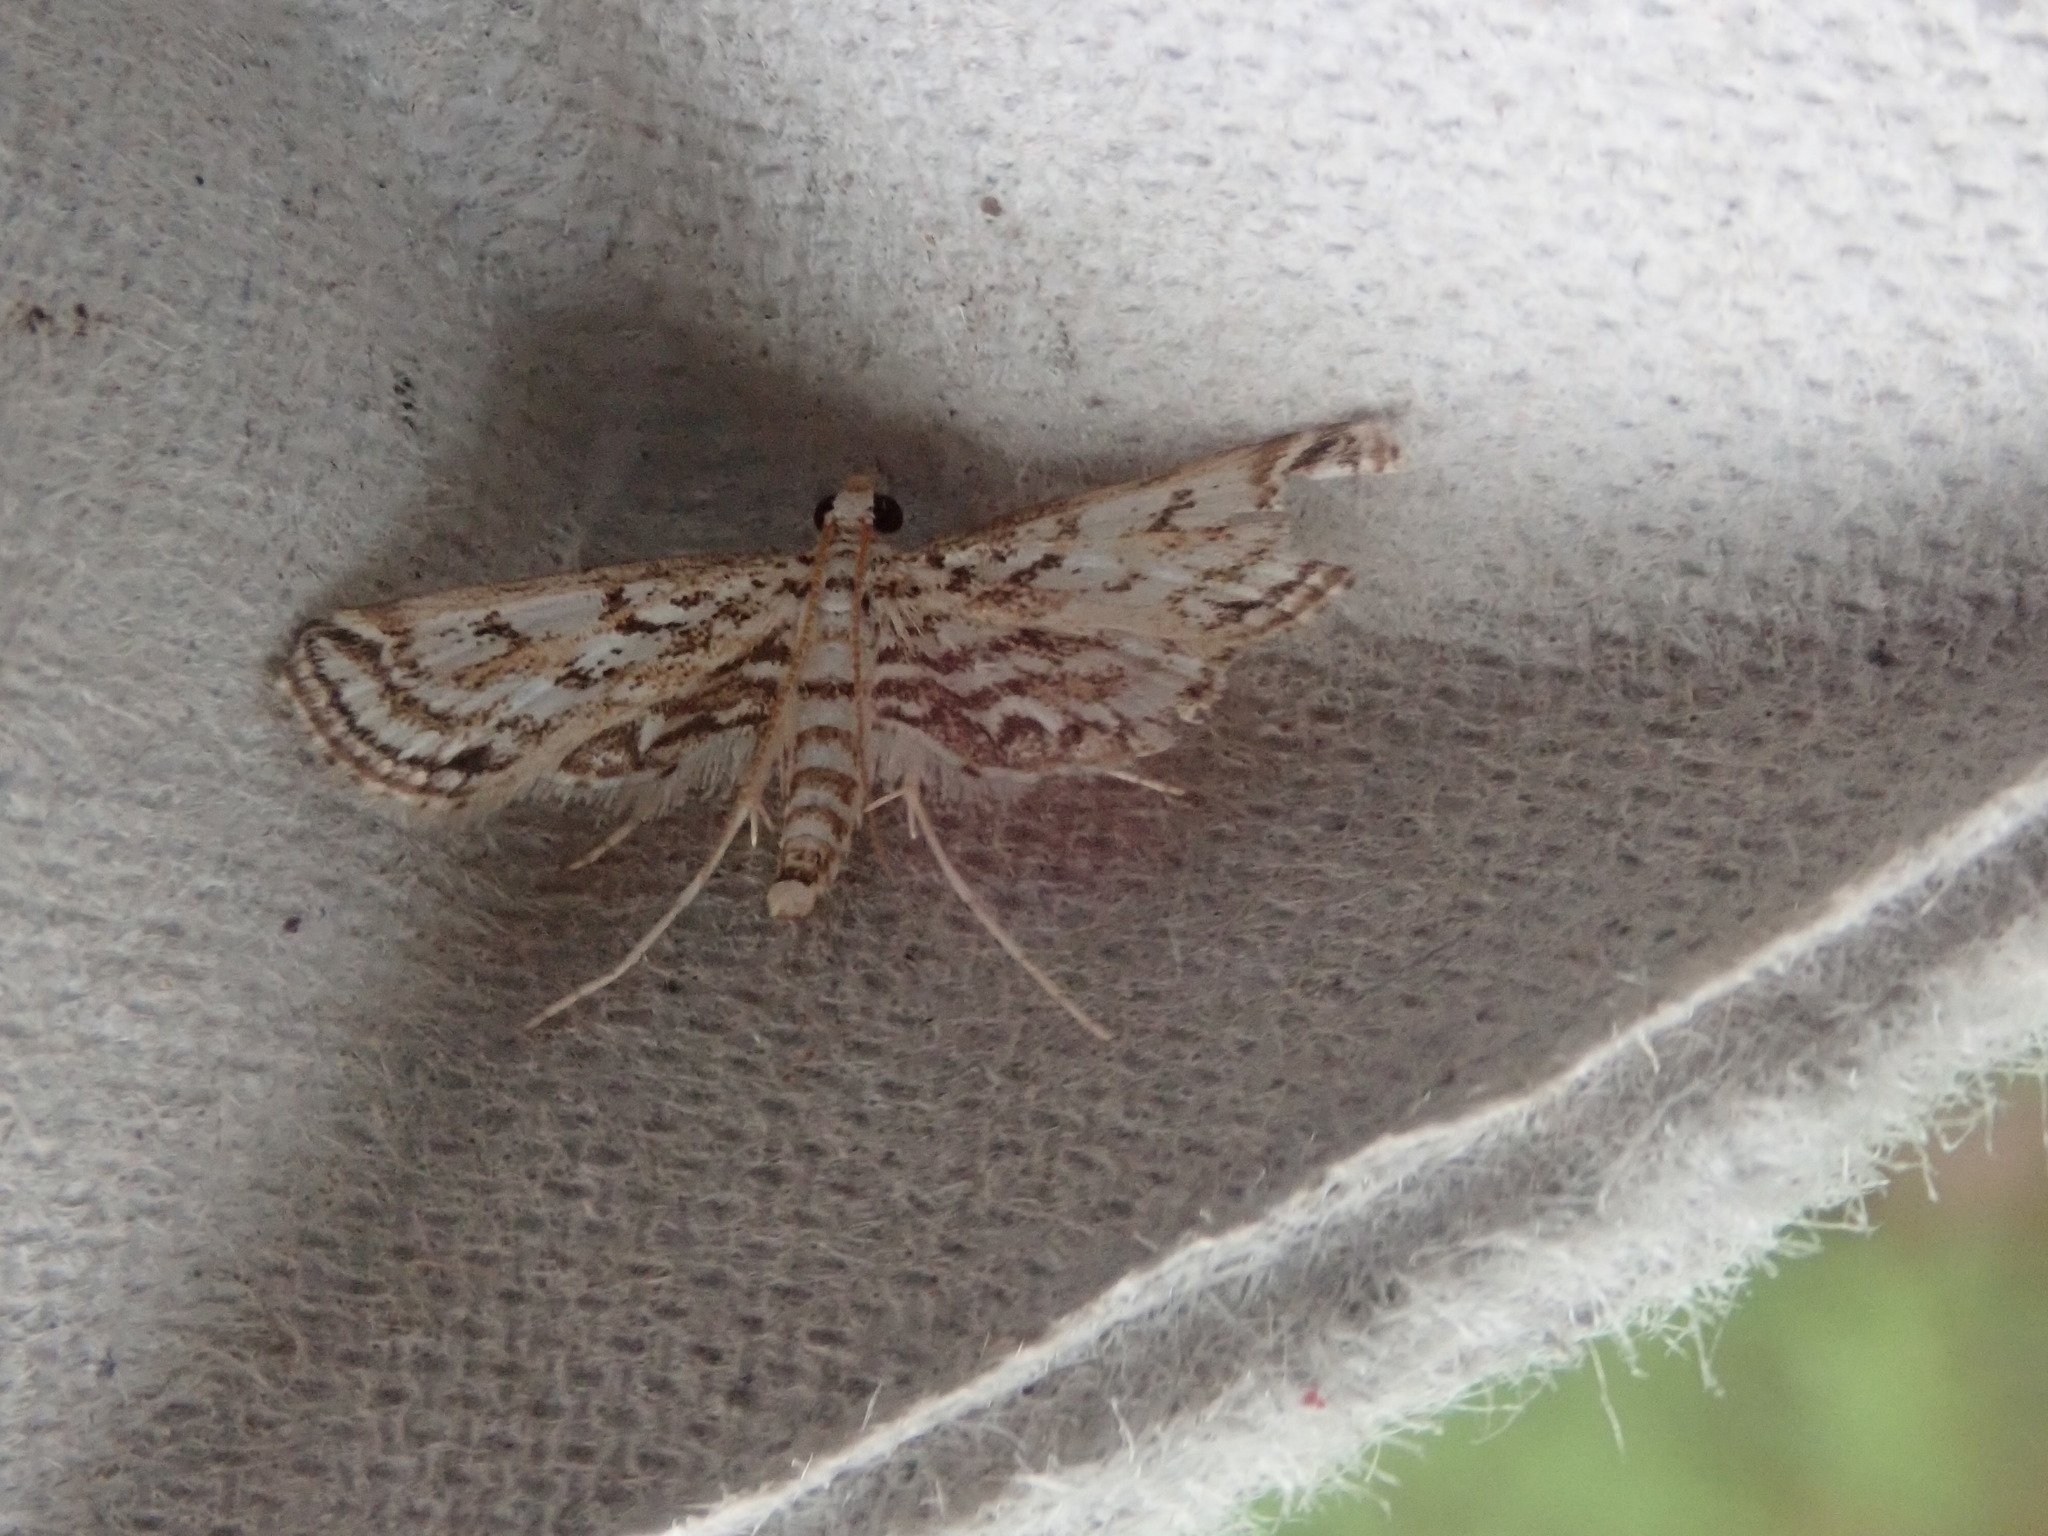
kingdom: Animalia
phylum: Arthropoda
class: Insecta
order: Lepidoptera
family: Crambidae
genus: Parapoynx
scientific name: Parapoynx allionealis
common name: Bladderwort casemaker
